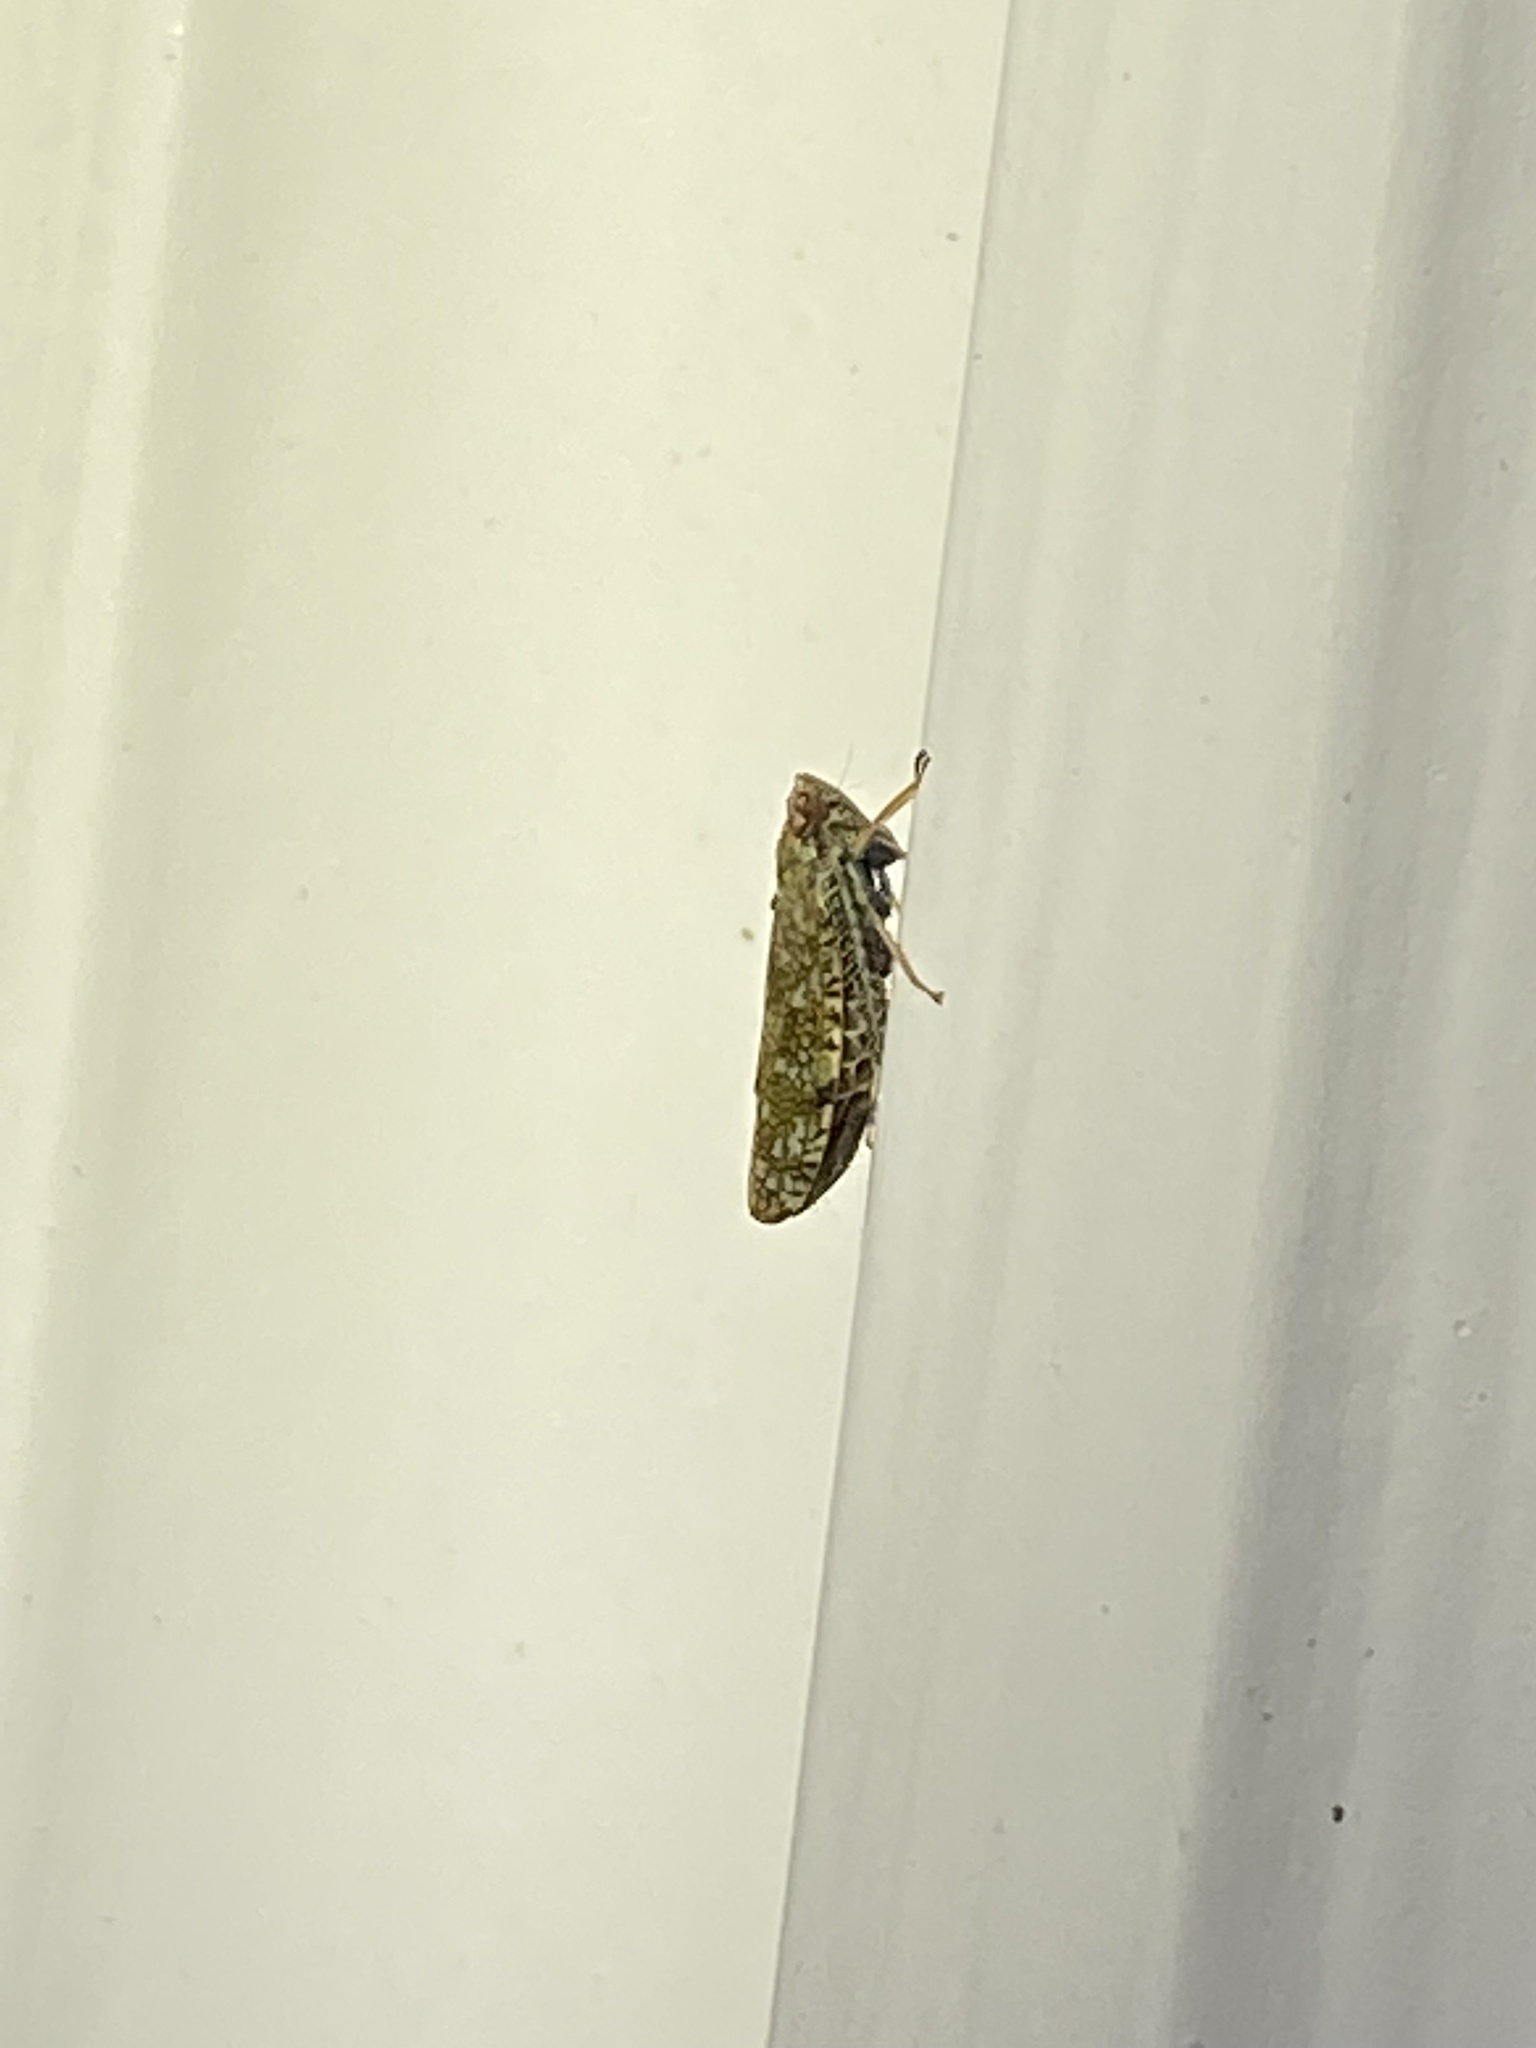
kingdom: Animalia
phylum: Arthropoda
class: Insecta
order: Hemiptera
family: Cicadellidae
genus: Orientus
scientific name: Orientus ishidae
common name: Japanese leafhopper
